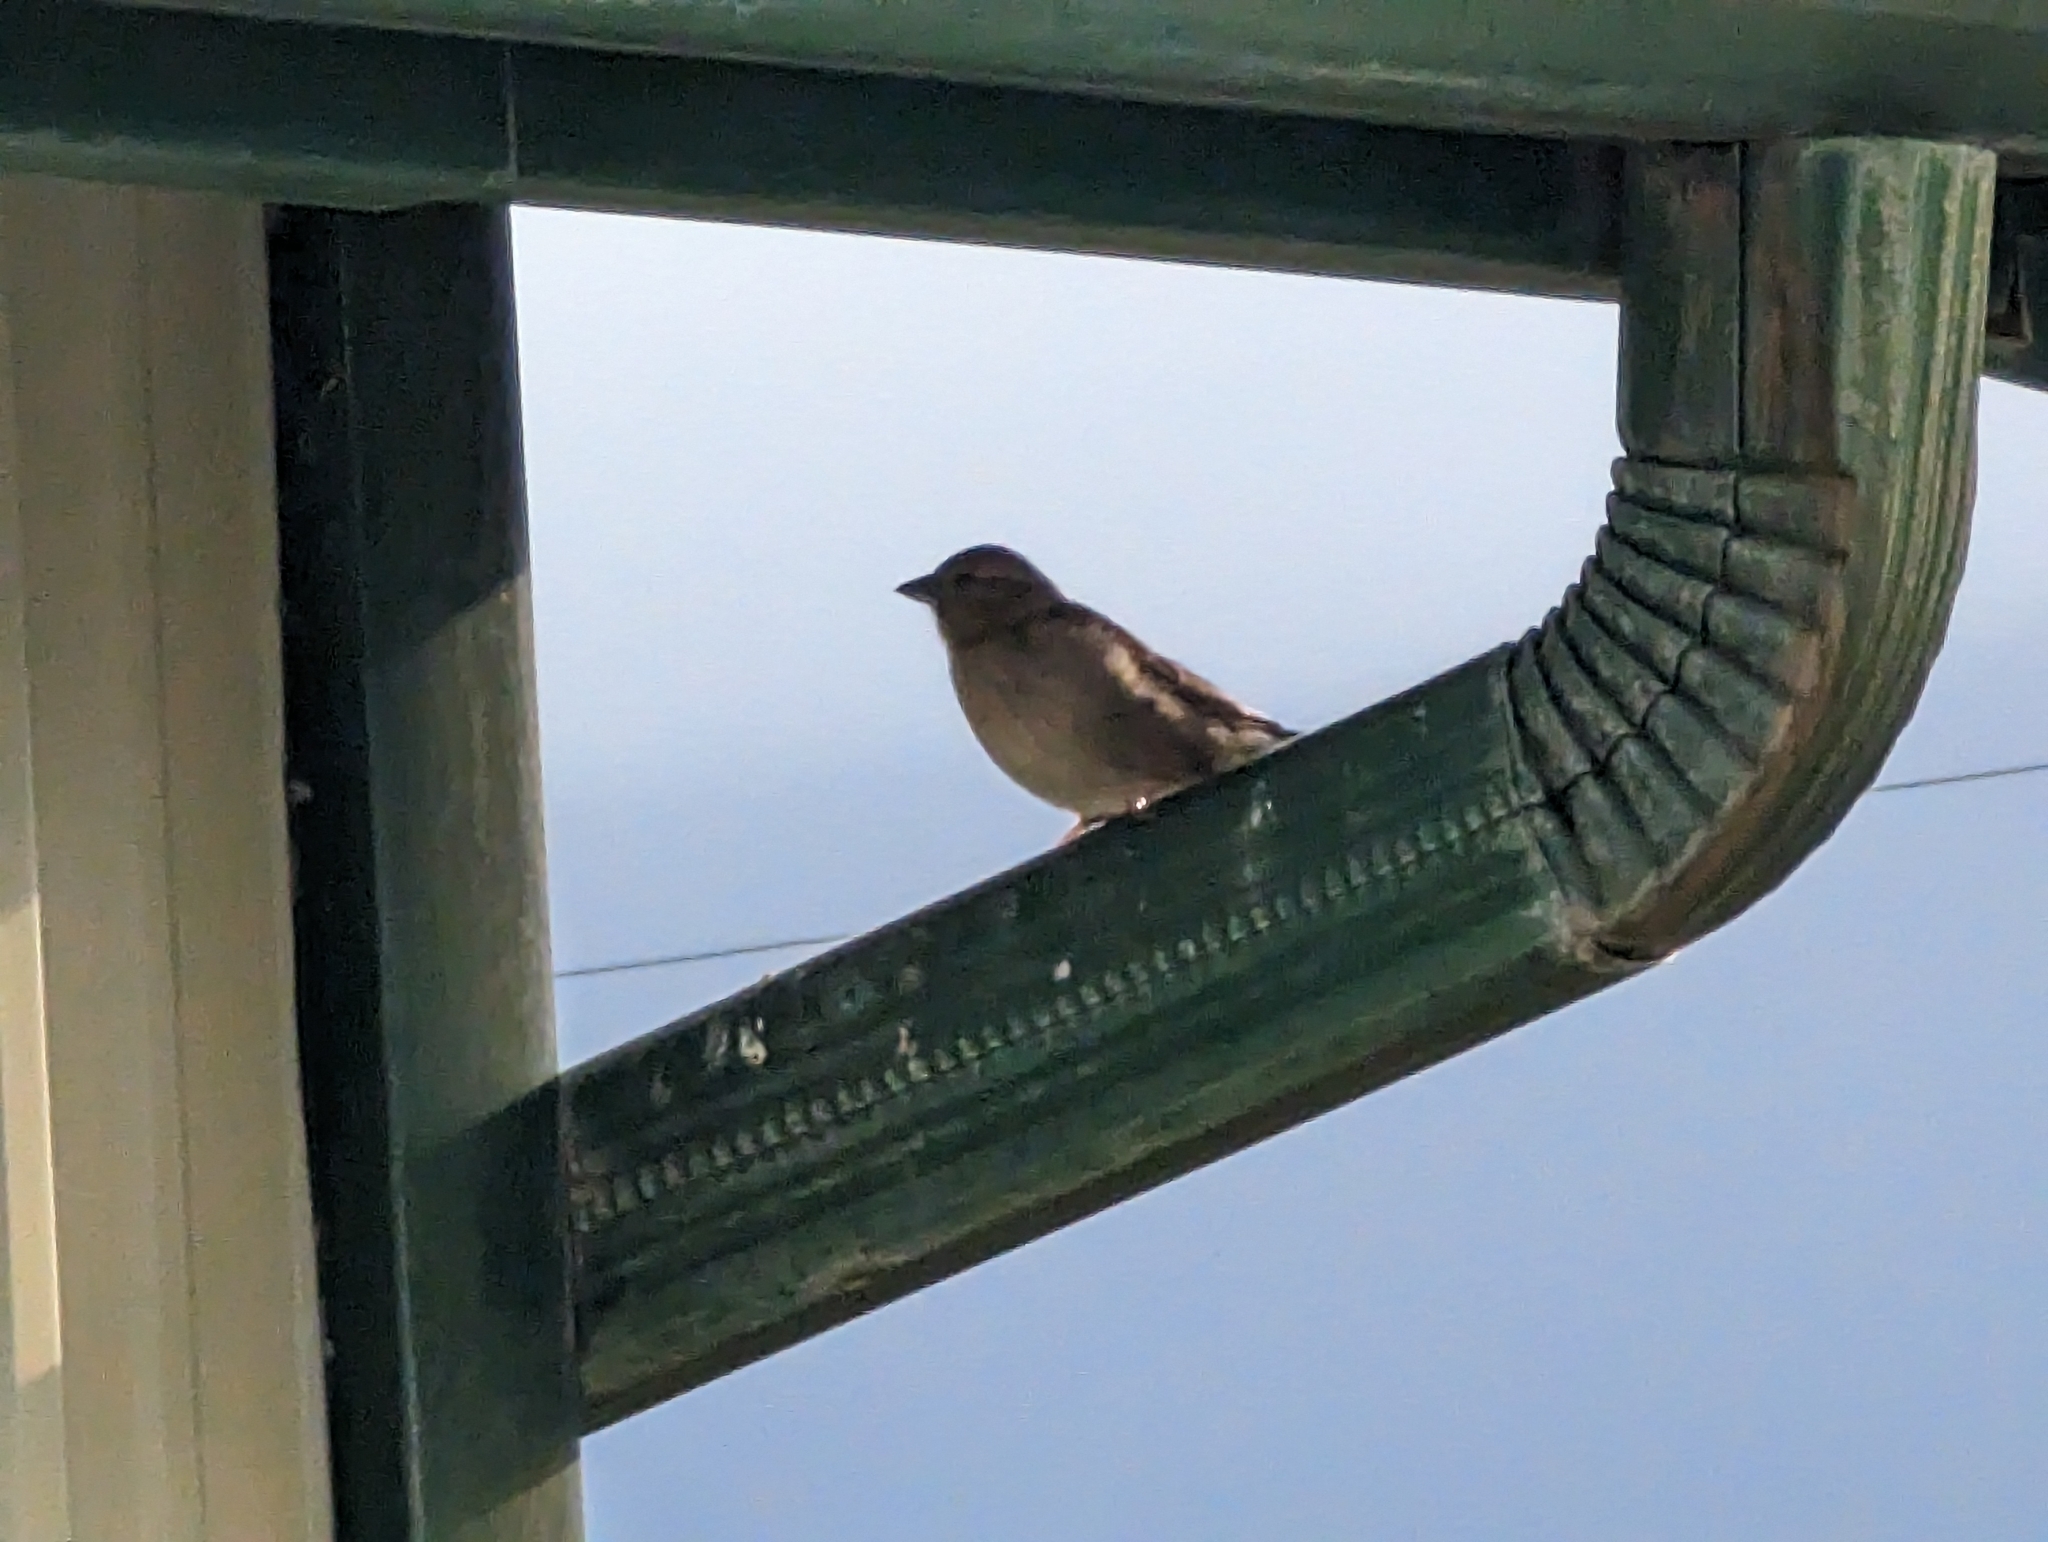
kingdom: Animalia
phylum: Chordata
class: Aves
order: Passeriformes
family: Passeridae
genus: Passer
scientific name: Passer domesticus
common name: House sparrow
